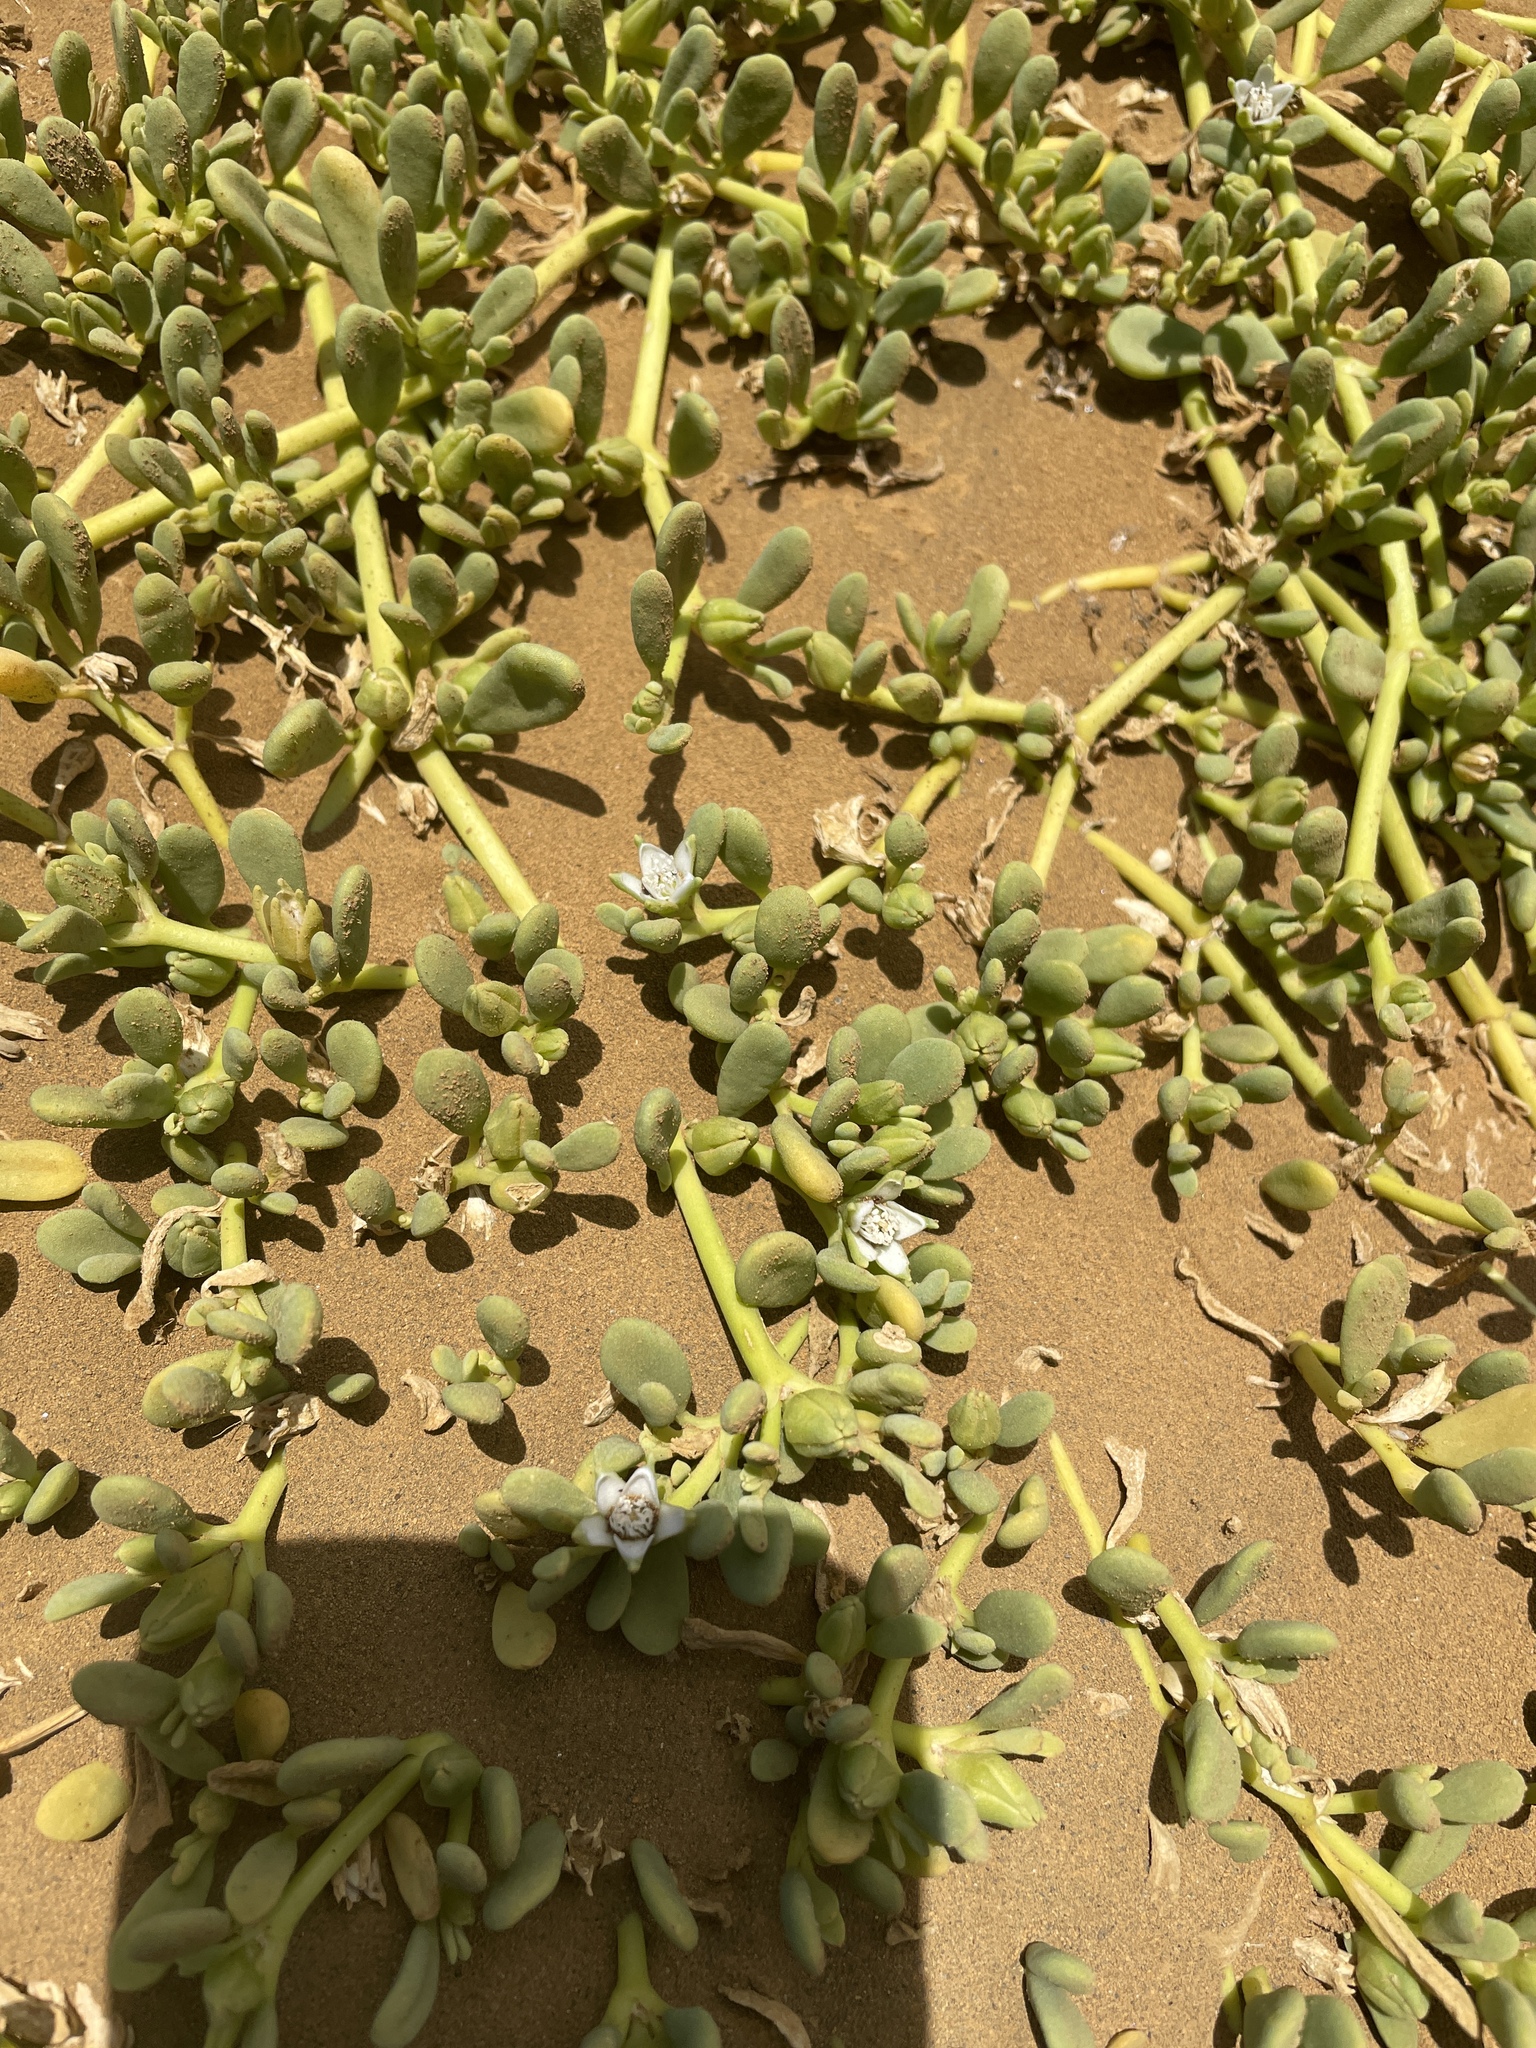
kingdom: Plantae
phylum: Tracheophyta
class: Magnoliopsida
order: Caryophyllales
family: Aizoaceae
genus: Sesuvium
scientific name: Sesuvium portulacastrum
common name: Sea-purslane
